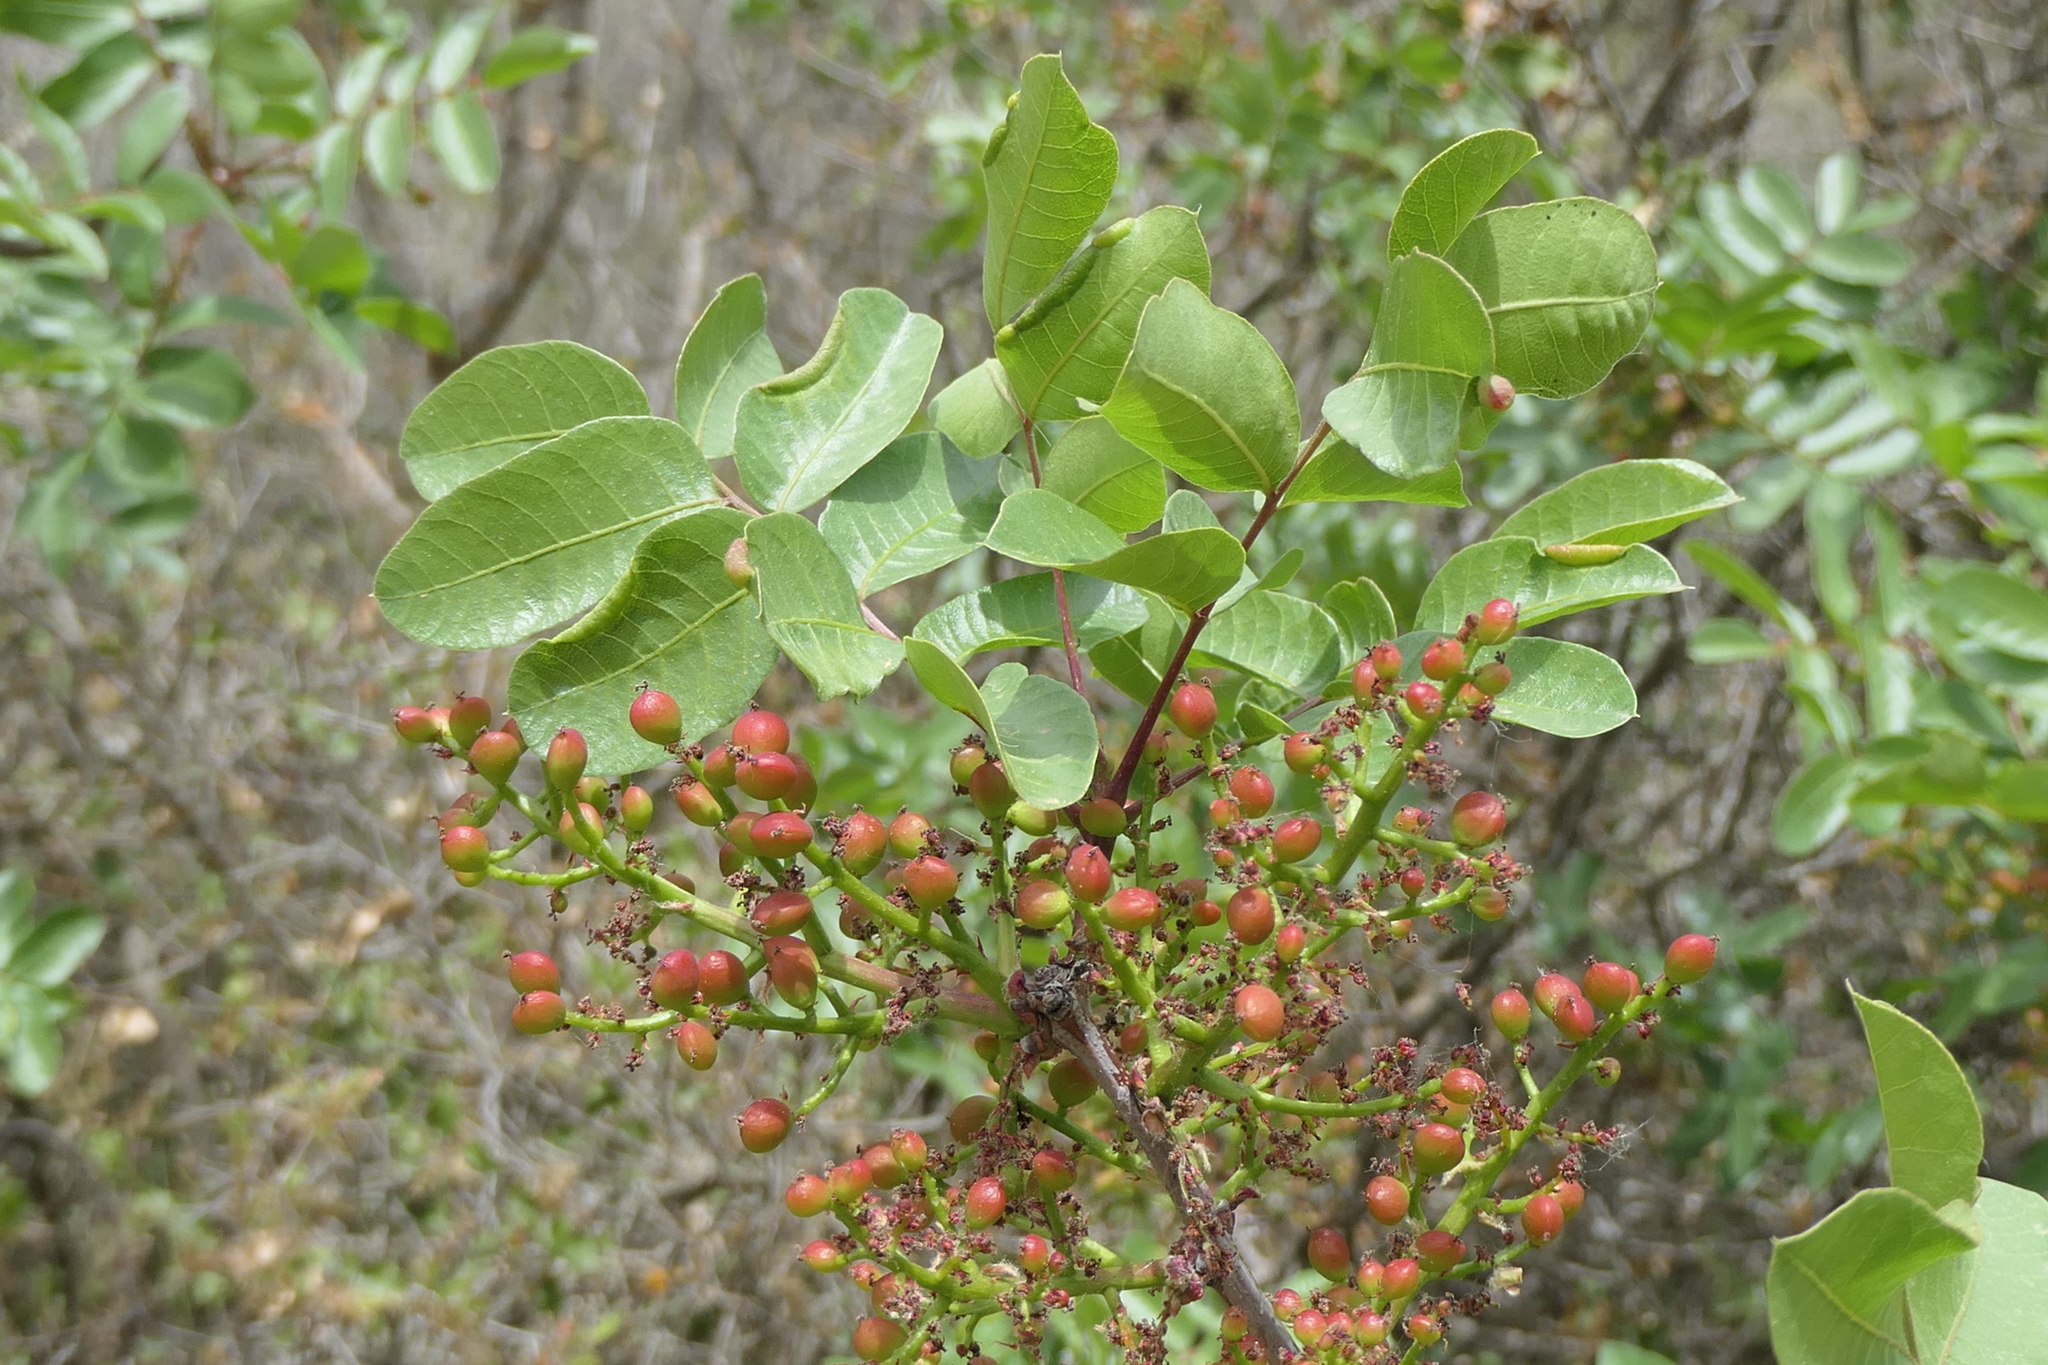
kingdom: Plantae
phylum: Tracheophyta
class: Magnoliopsida
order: Sapindales
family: Anacardiaceae
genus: Pistacia
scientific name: Pistacia terebinthus
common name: Terebinth
